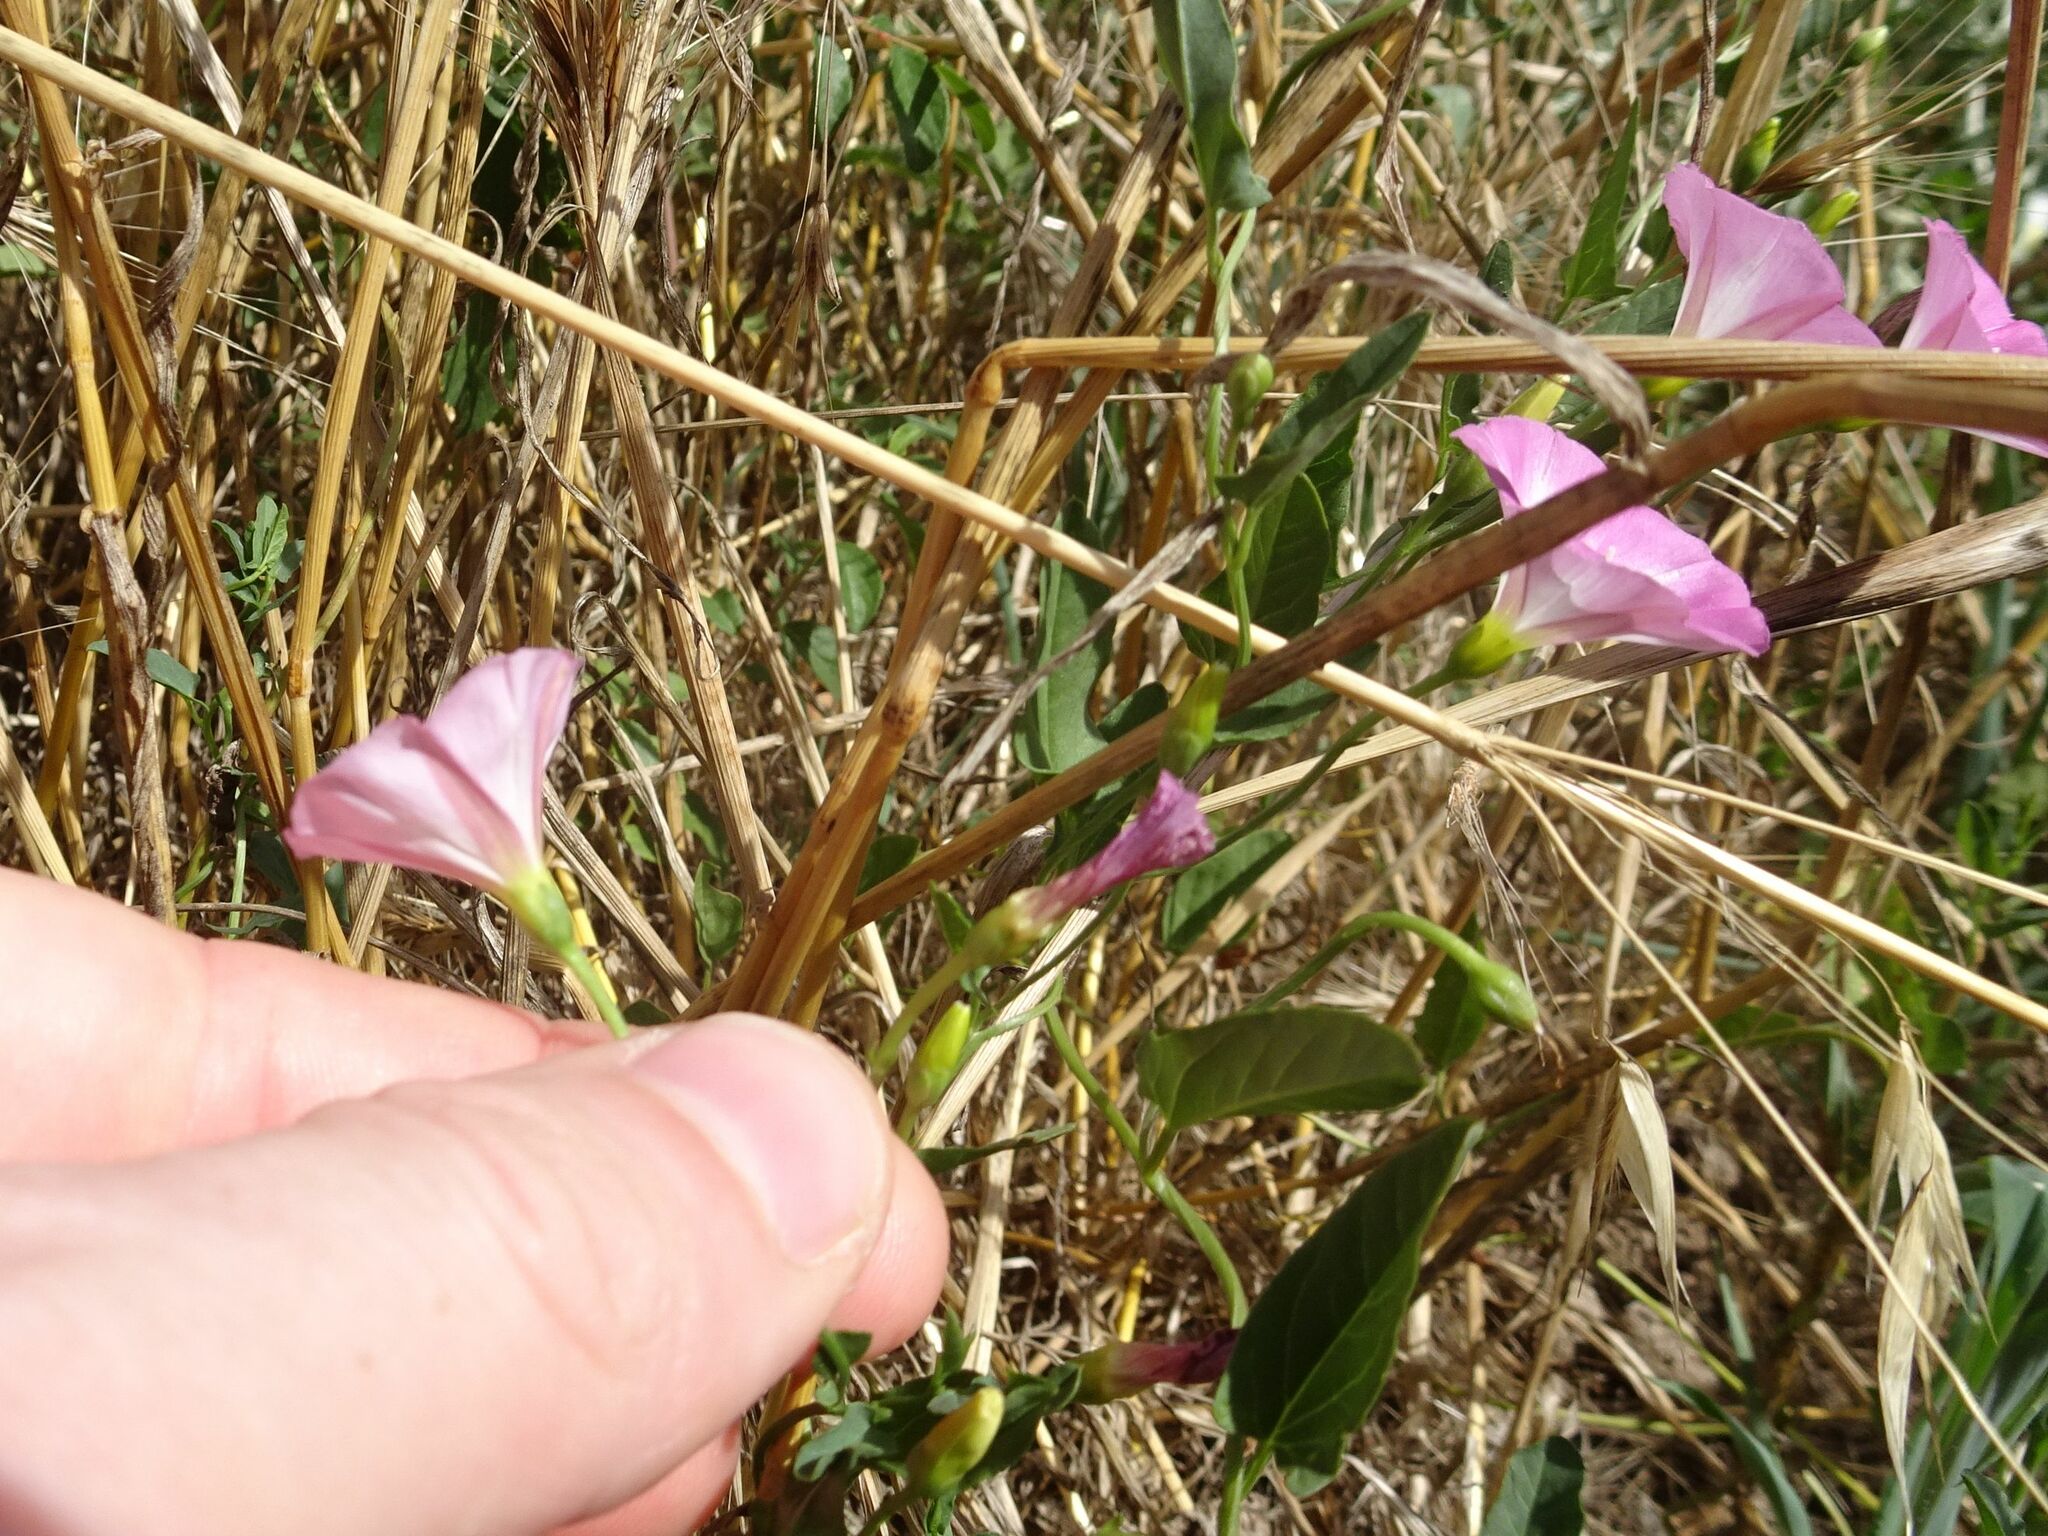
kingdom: Plantae
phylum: Tracheophyta
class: Magnoliopsida
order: Solanales
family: Convolvulaceae
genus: Convolvulus
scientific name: Convolvulus arvensis
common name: Field bindweed
